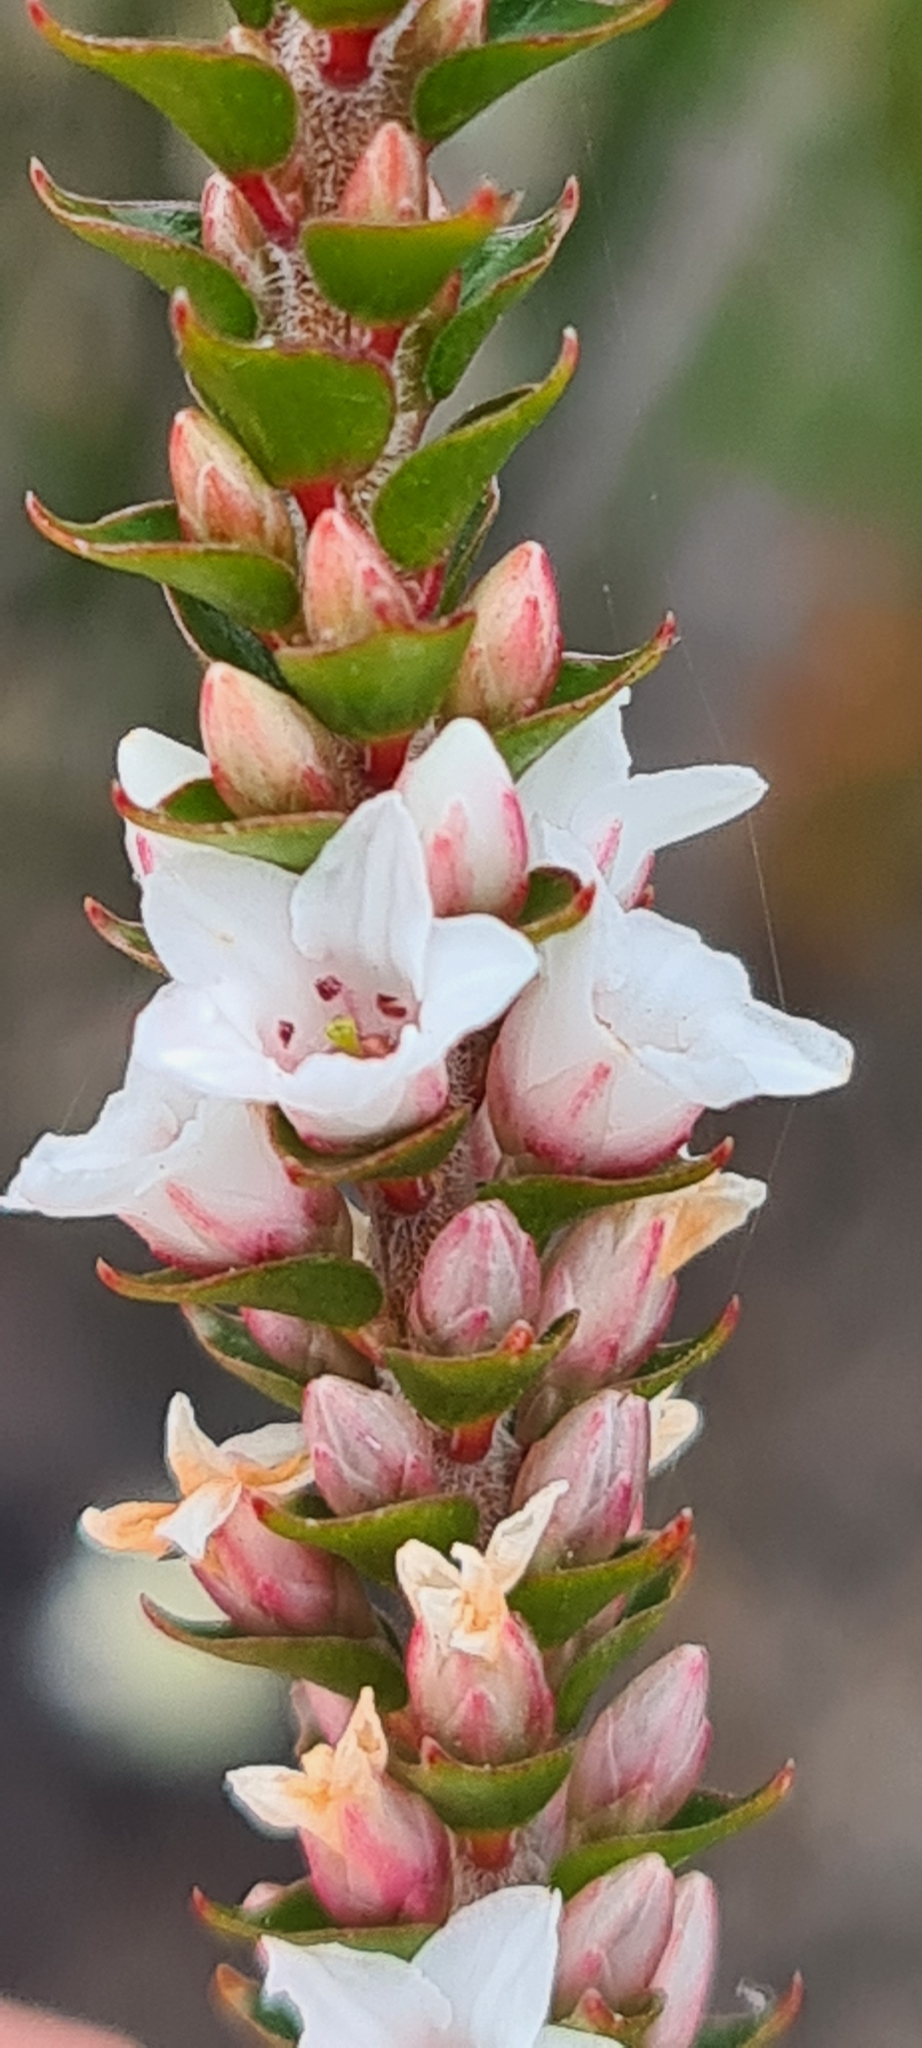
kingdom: Plantae
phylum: Tracheophyta
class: Magnoliopsida
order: Ericales
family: Ericaceae
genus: Epacris
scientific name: Epacris microphylla
